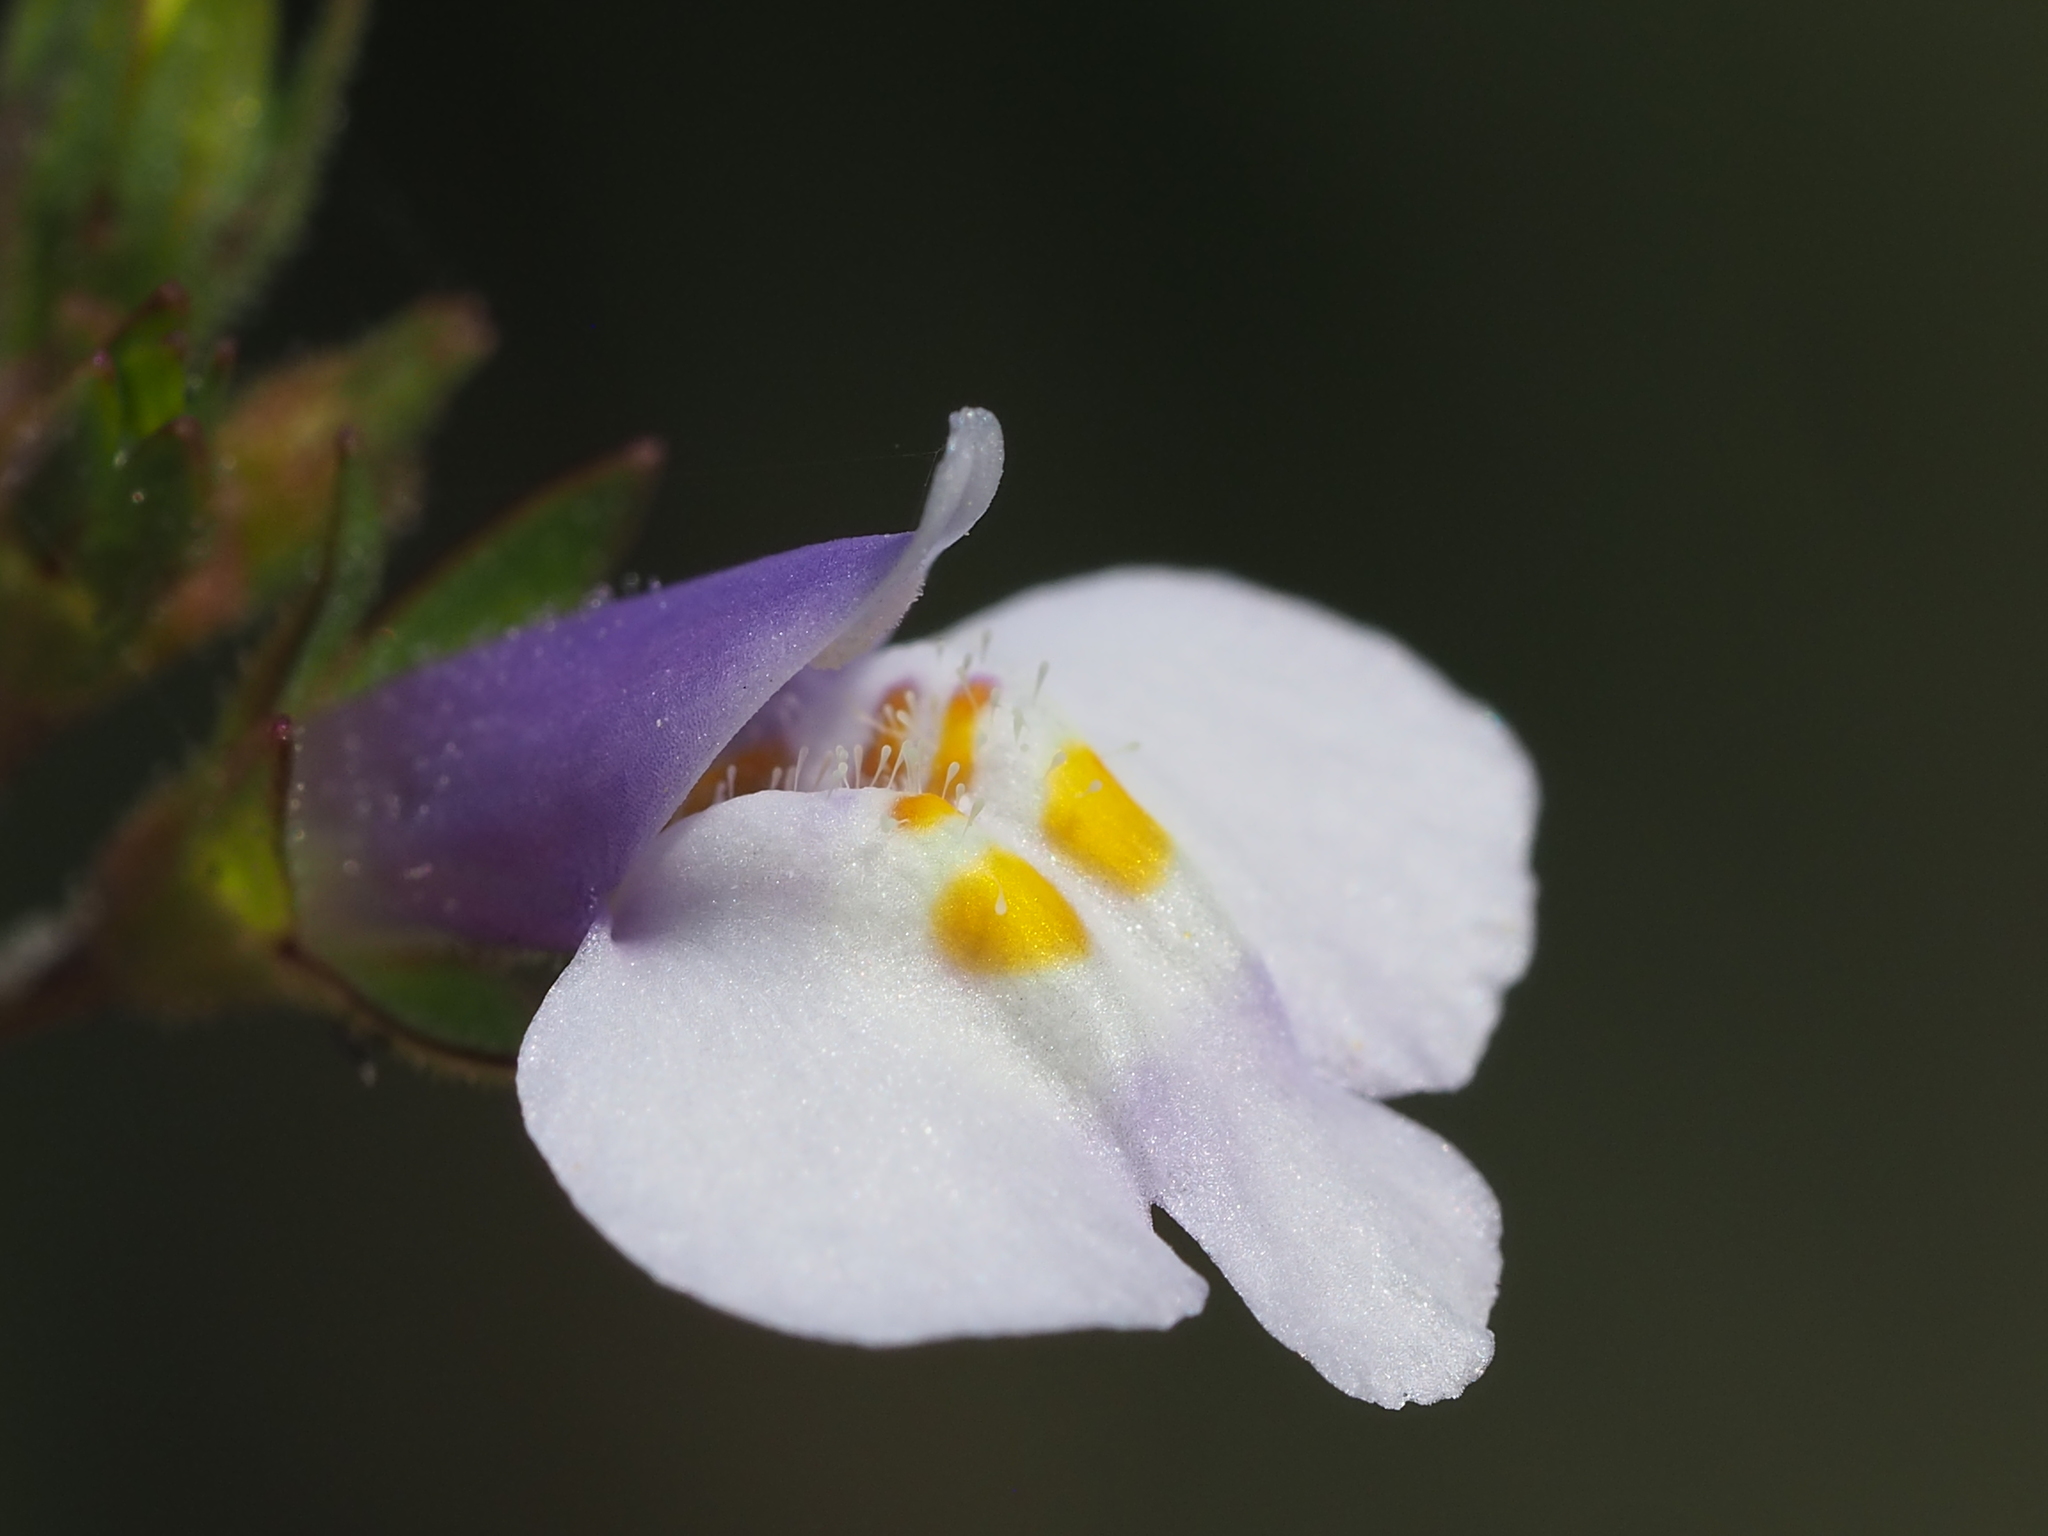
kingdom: Plantae
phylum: Tracheophyta
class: Magnoliopsida
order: Lamiales
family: Mazaceae
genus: Mazus
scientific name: Mazus pumilus
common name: Japanese mazus
